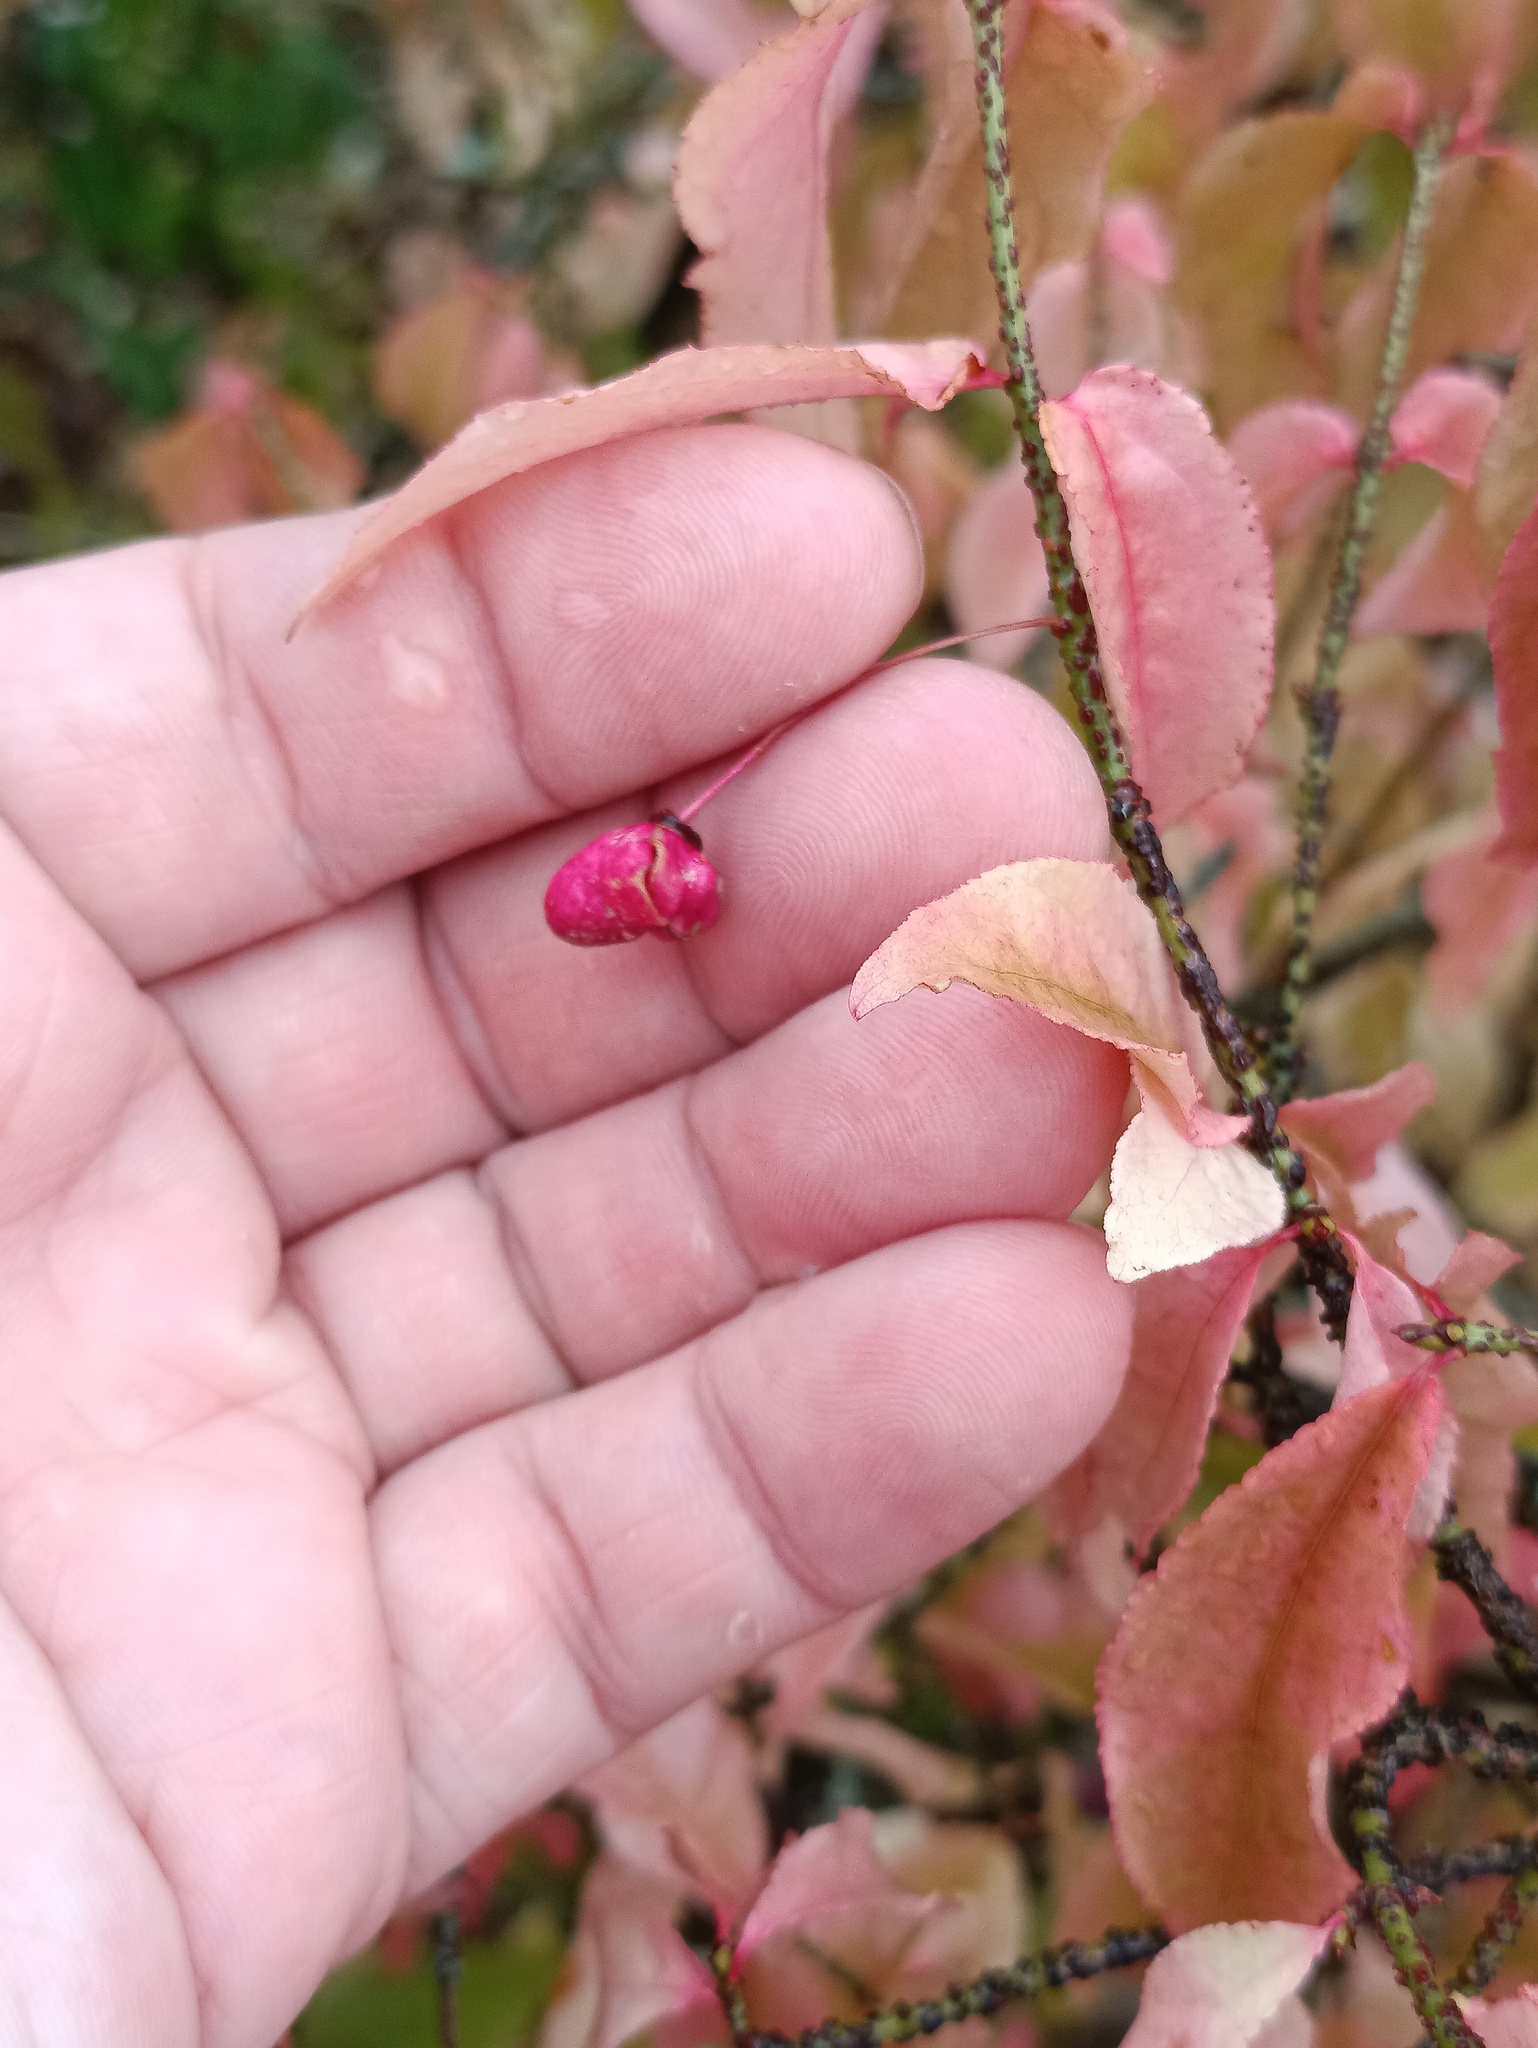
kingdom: Plantae
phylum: Tracheophyta
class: Magnoliopsida
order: Celastrales
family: Celastraceae
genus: Euonymus
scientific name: Euonymus verrucosus
